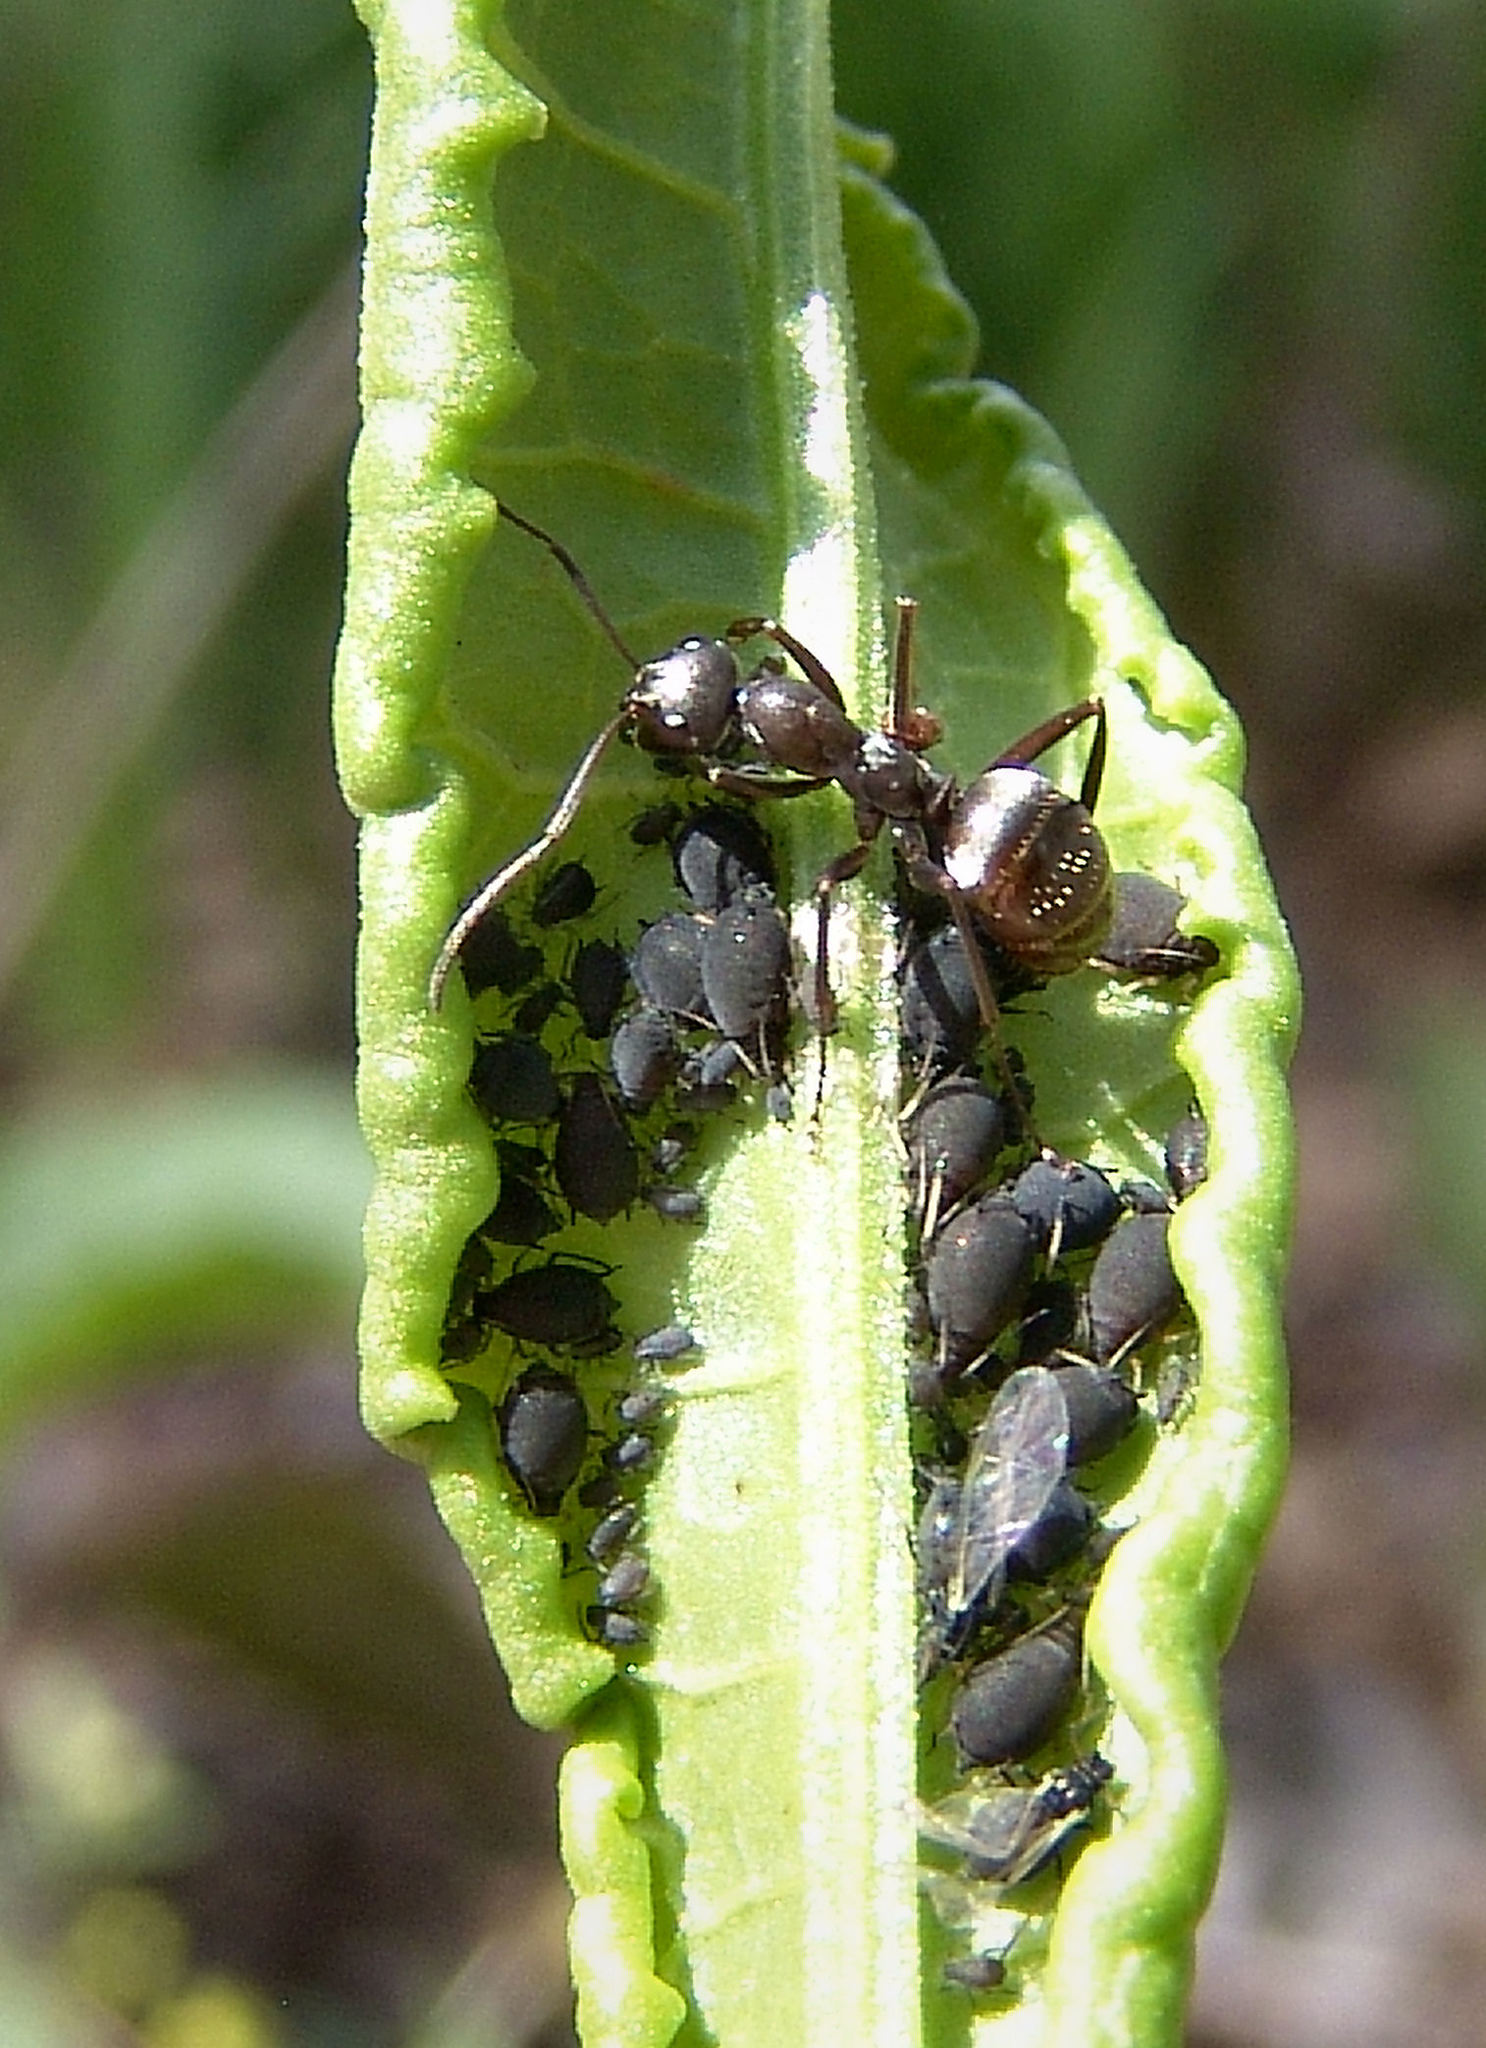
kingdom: Animalia
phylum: Arthropoda
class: Insecta
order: Hymenoptera
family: Formicidae
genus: Formica
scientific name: Formica subsericea
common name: Silky field ant
